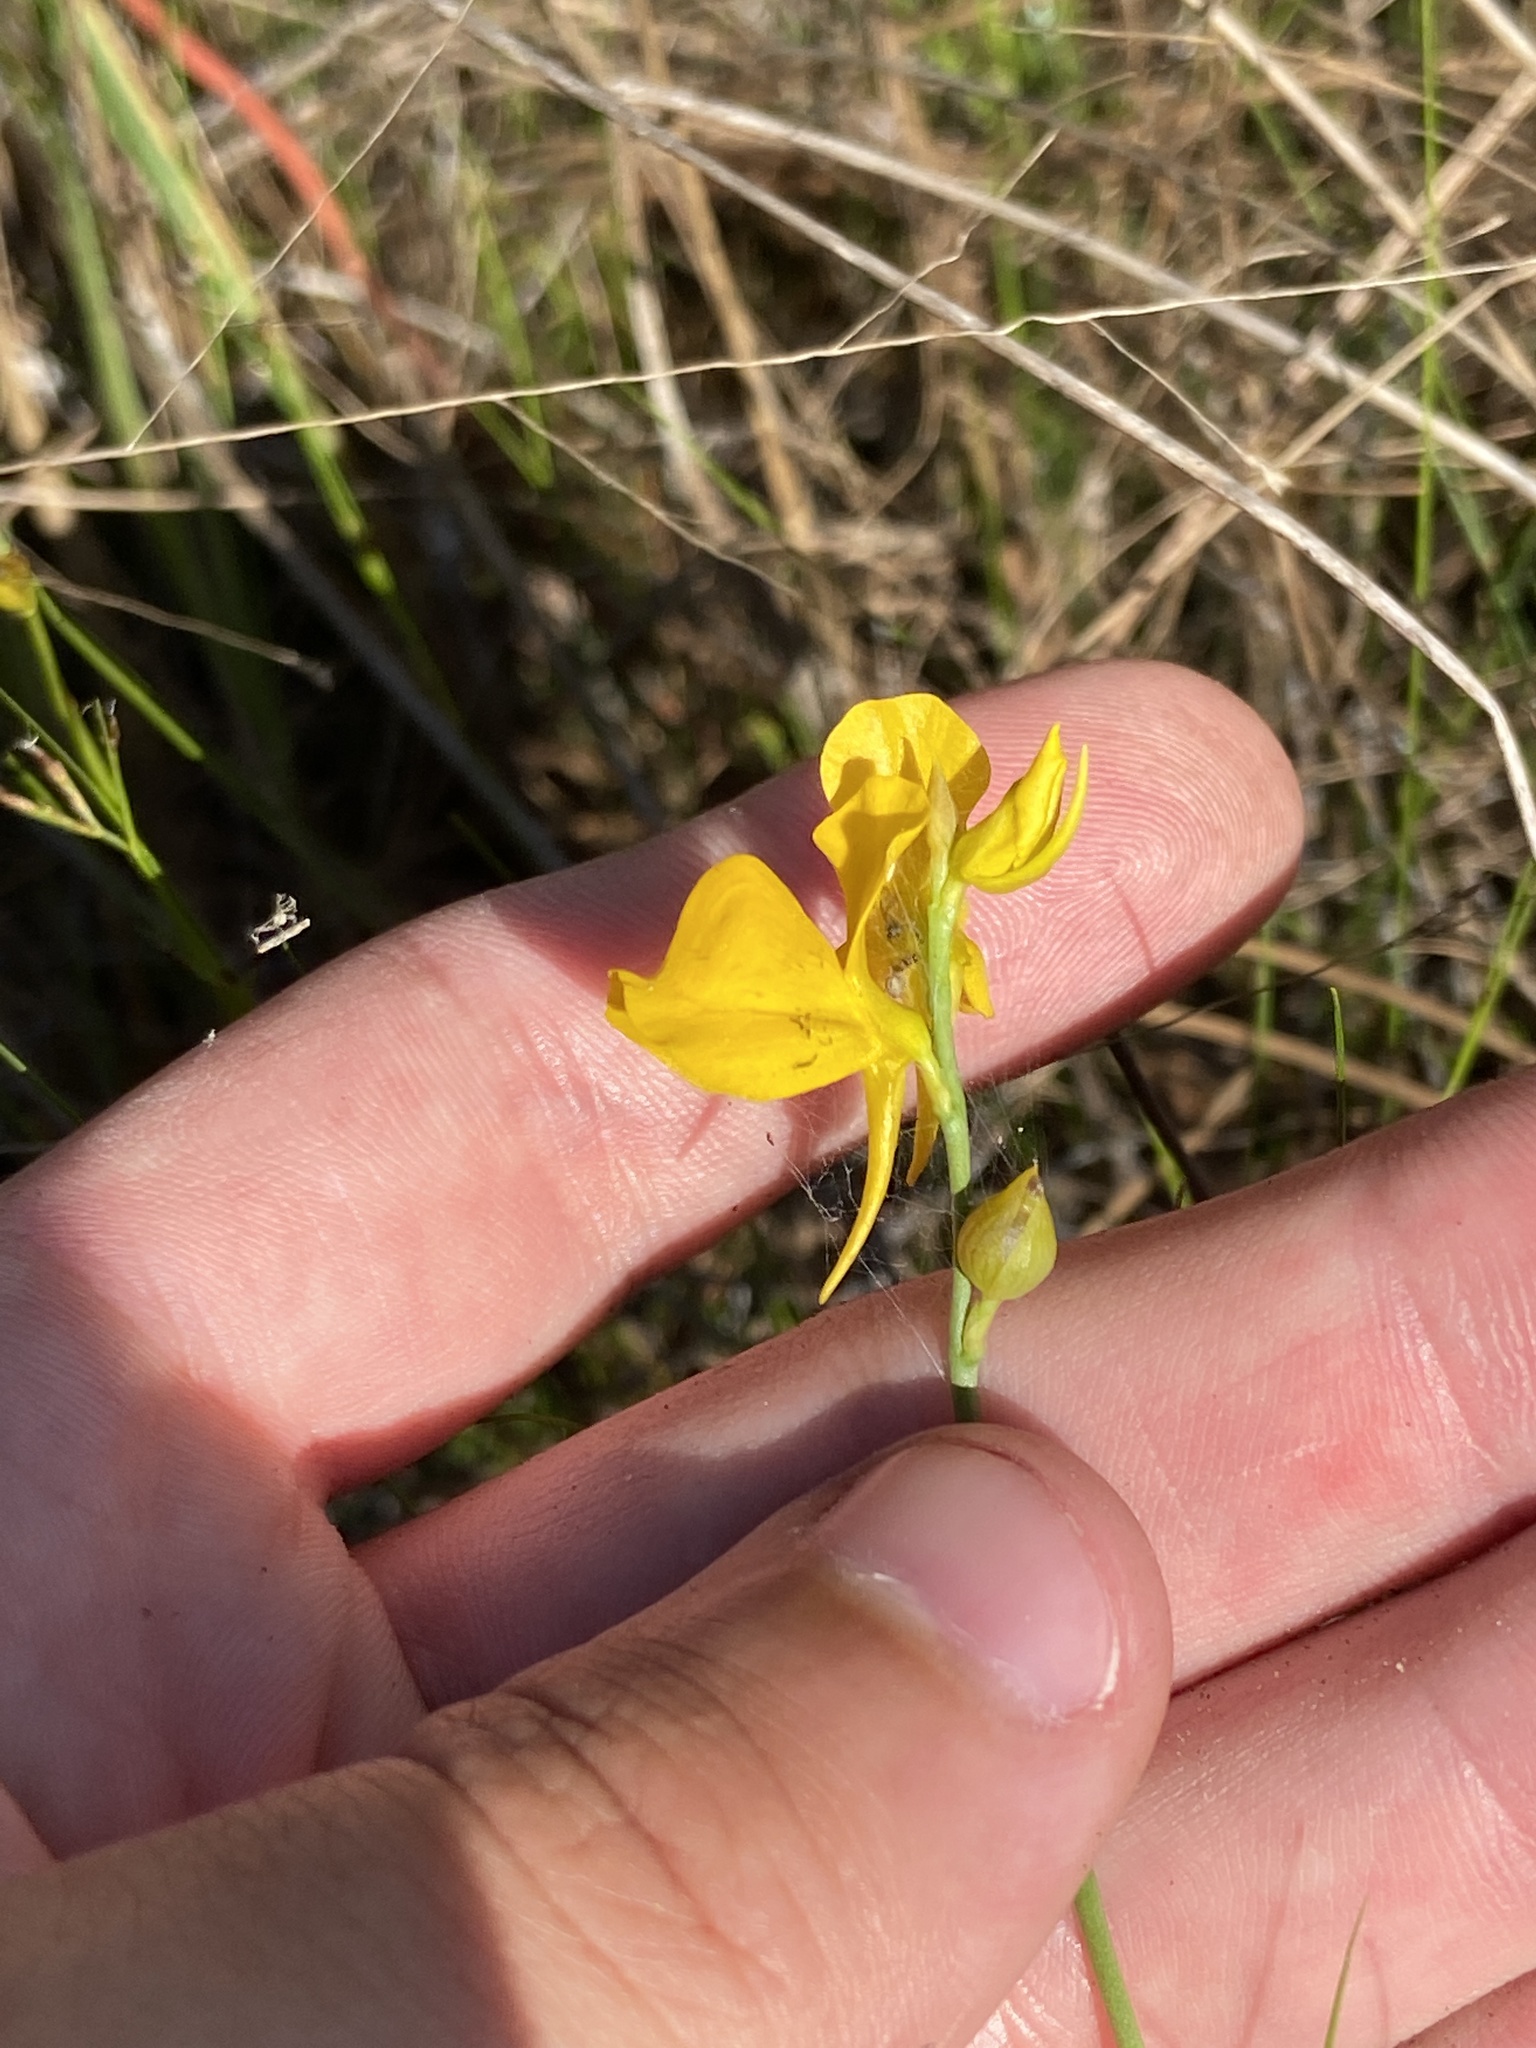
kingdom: Plantae
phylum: Tracheophyta
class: Magnoliopsida
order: Lamiales
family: Lentibulariaceae
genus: Utricularia
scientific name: Utricularia cornuta
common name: Horned bladderwort
